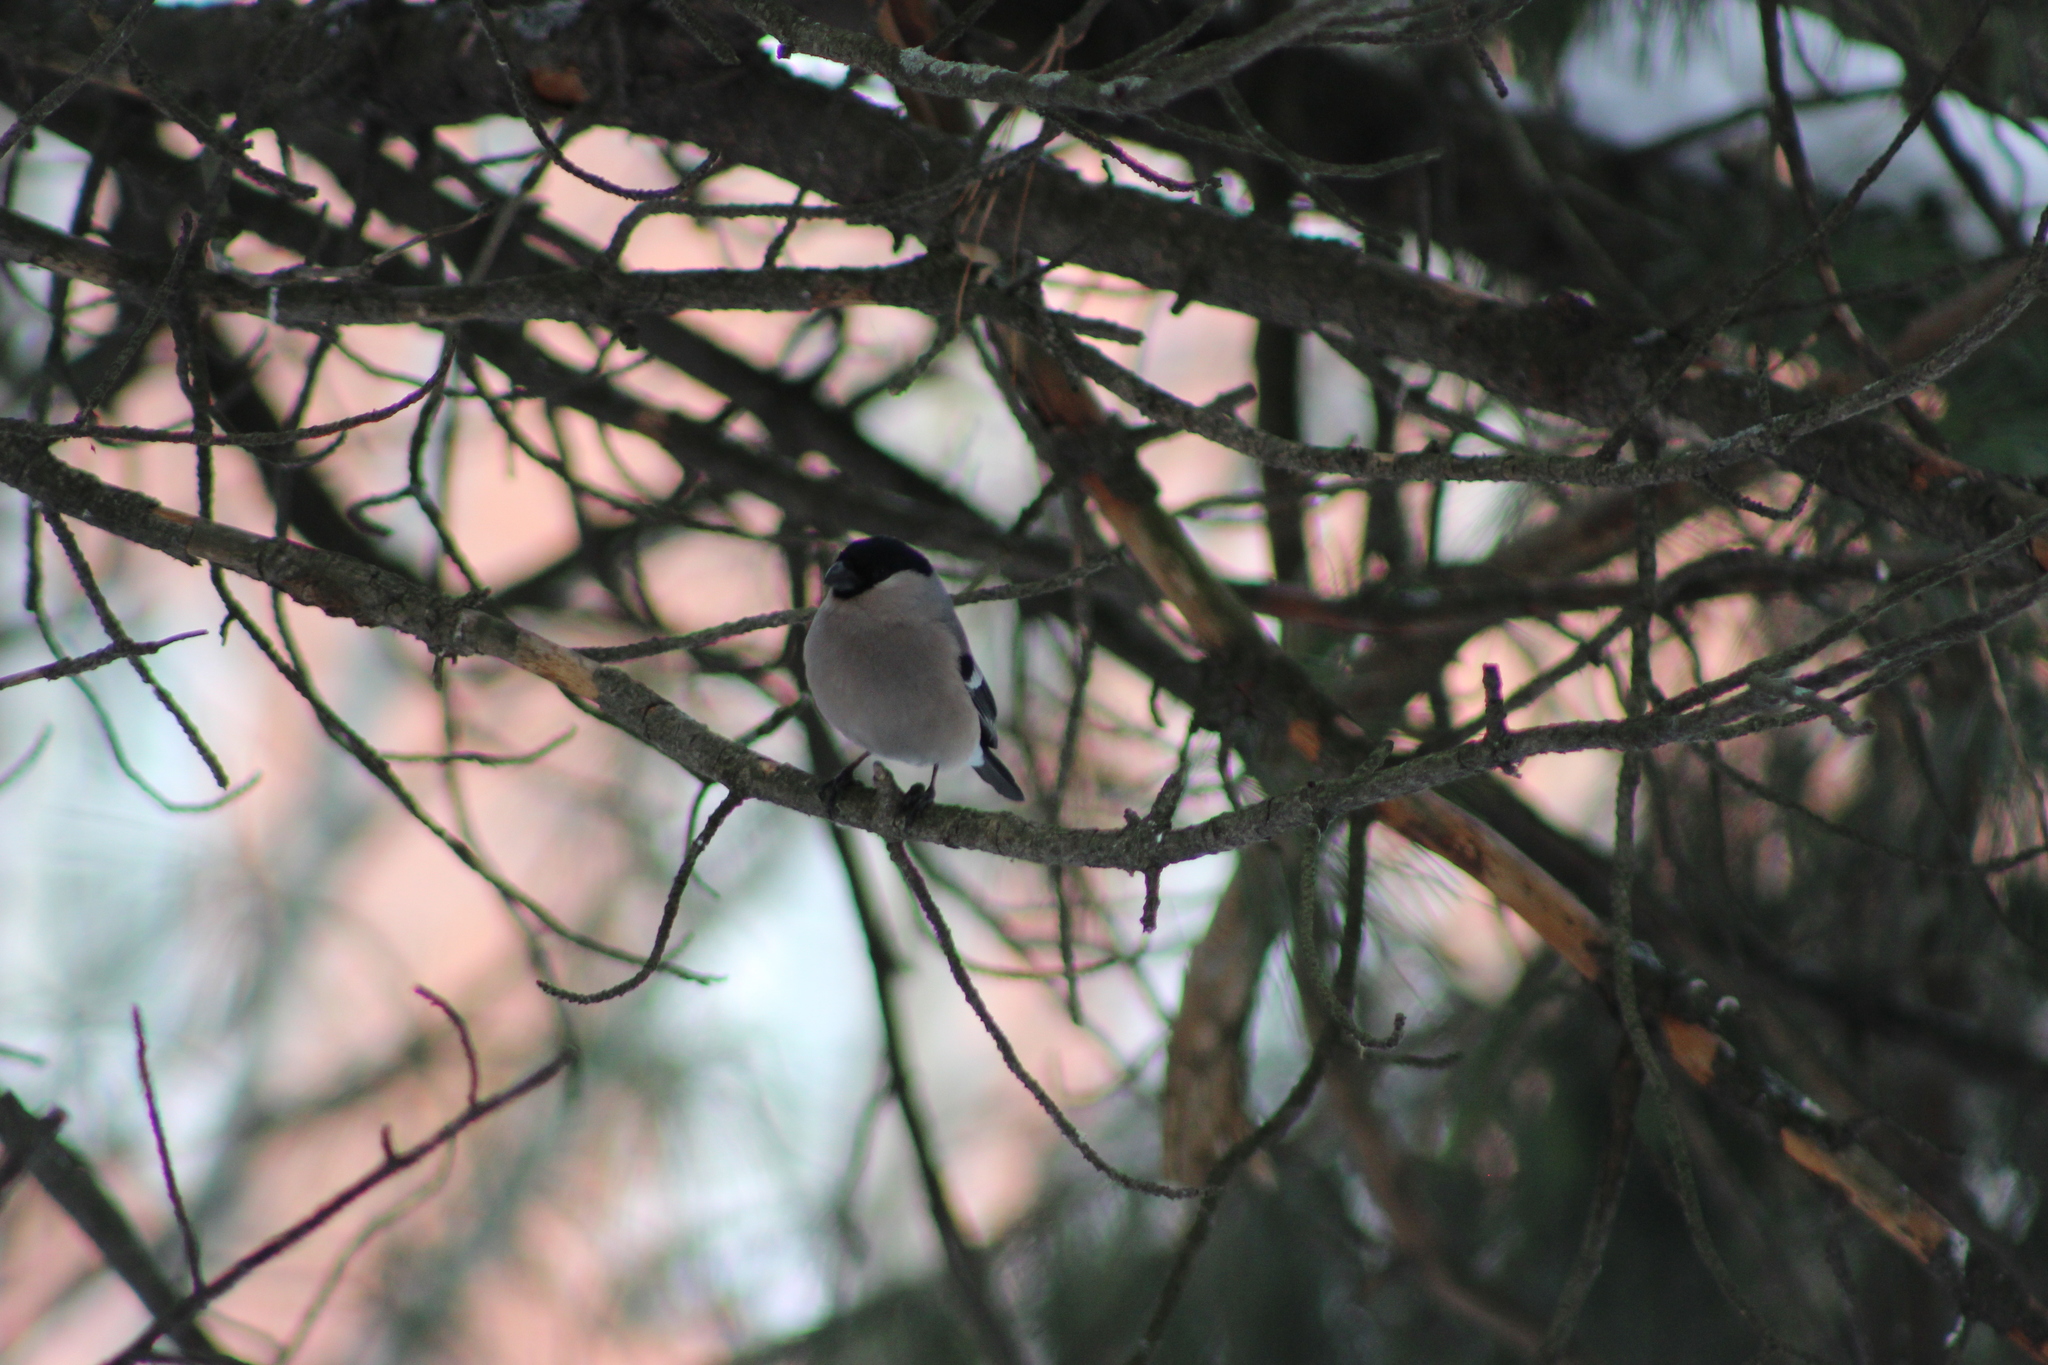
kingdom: Animalia
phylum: Chordata
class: Aves
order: Passeriformes
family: Fringillidae
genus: Pyrrhula
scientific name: Pyrrhula pyrrhula
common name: Eurasian bullfinch
